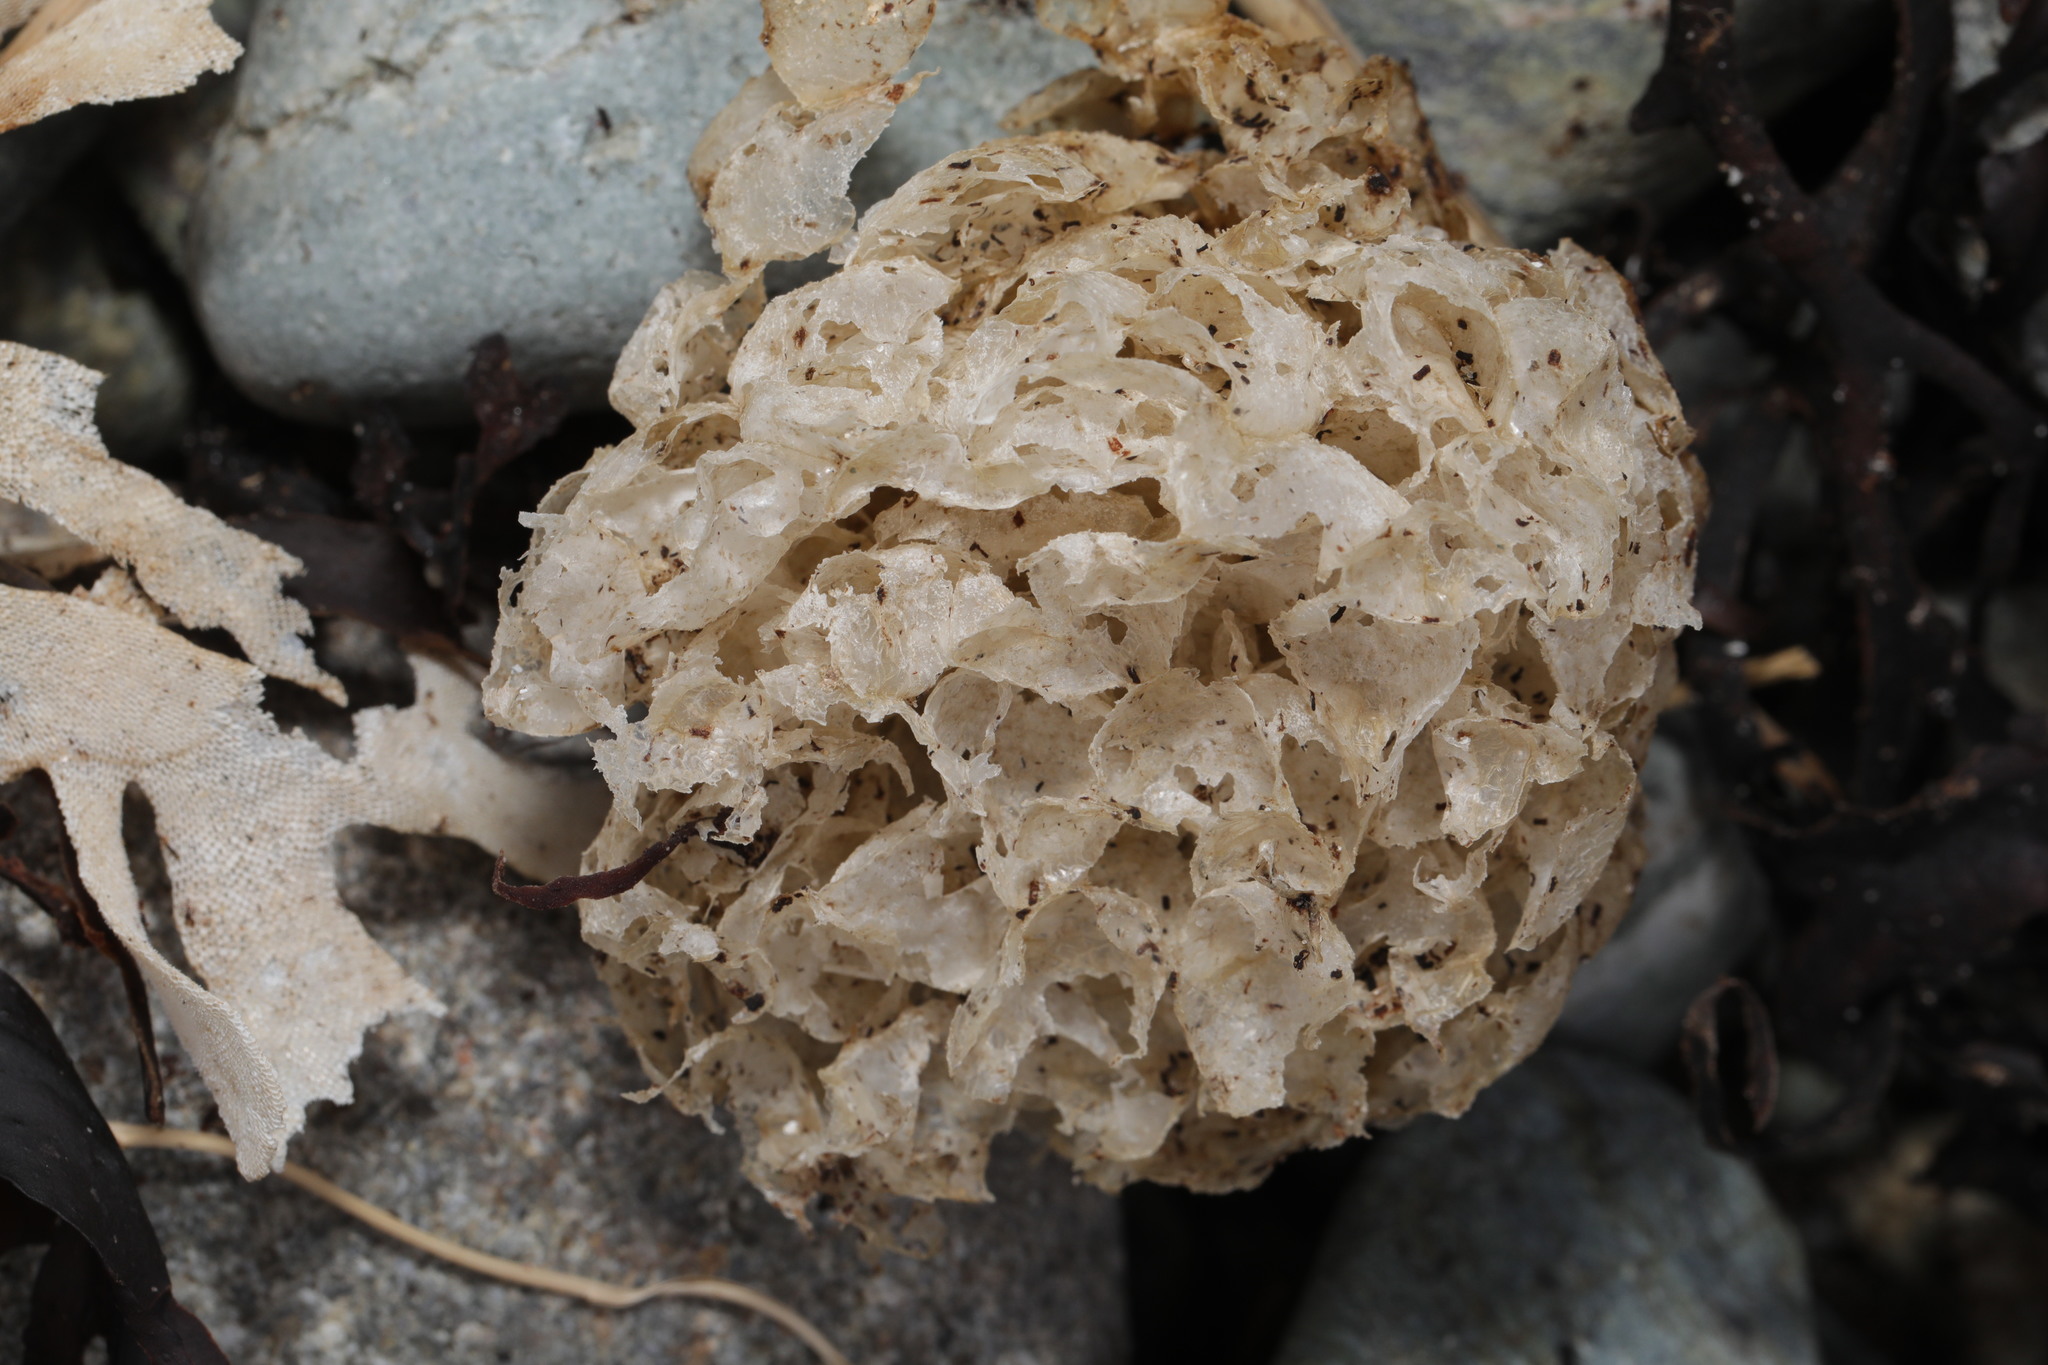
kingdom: Animalia
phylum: Mollusca
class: Gastropoda
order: Neogastropoda
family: Buccinidae
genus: Buccinum
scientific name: Buccinum undatum
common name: Common whelk
